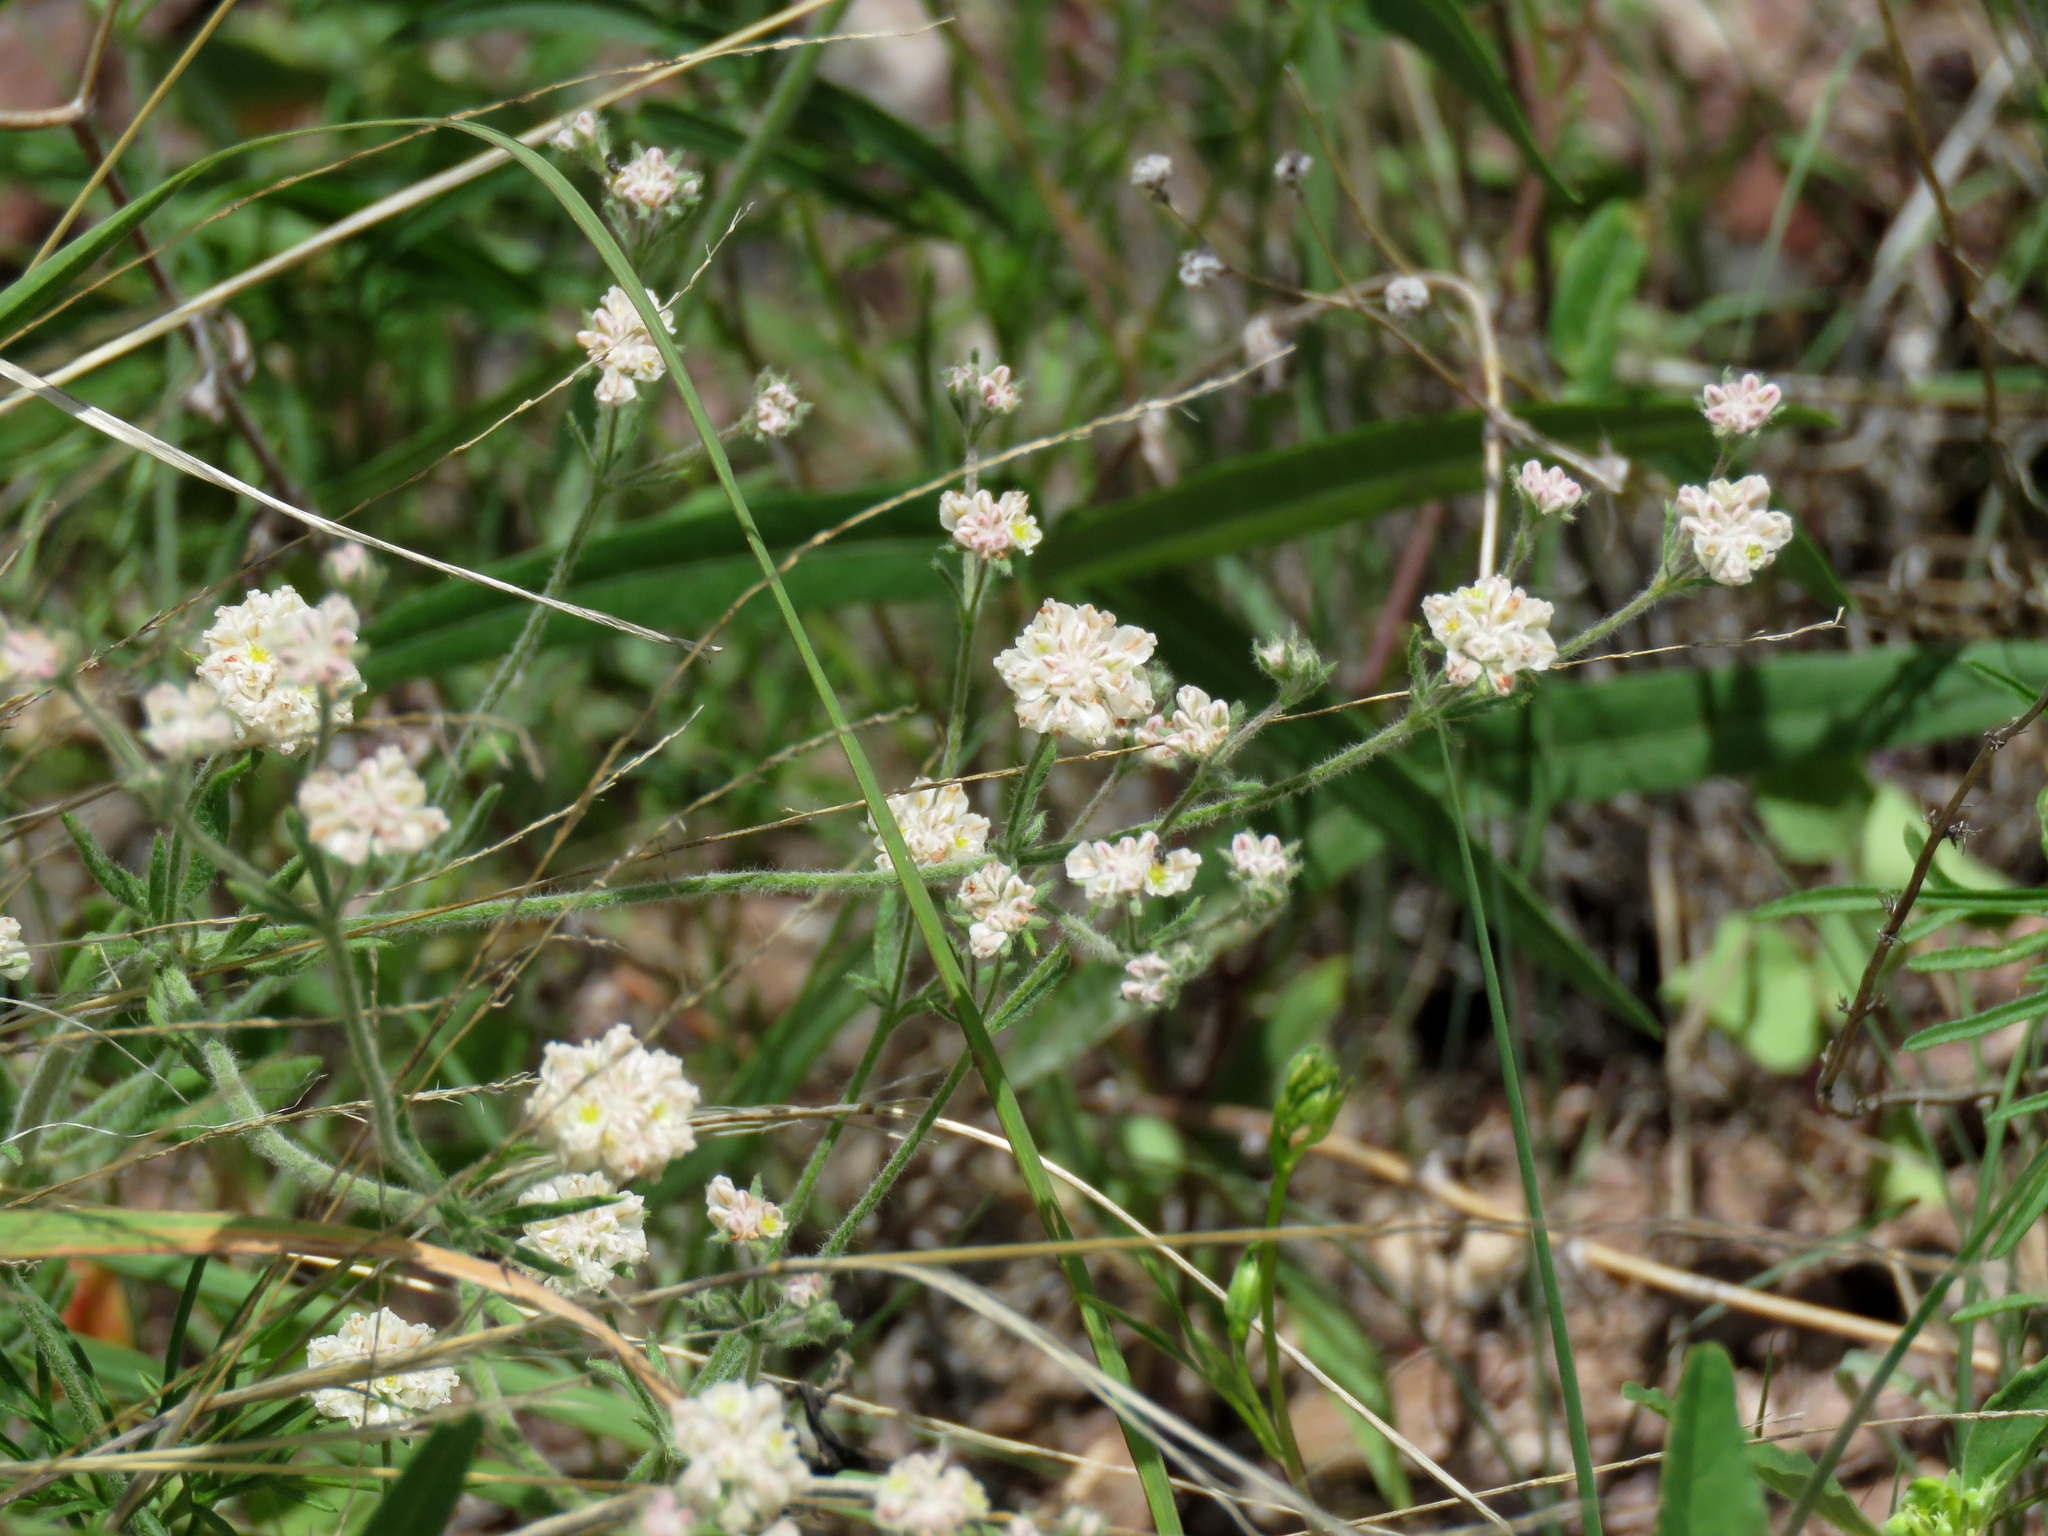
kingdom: Plantae
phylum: Tracheophyta
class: Magnoliopsida
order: Caryophyllales
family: Polygonaceae
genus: Eriogonum
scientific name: Eriogonum abertianum
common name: Abert's wild buckwheat
